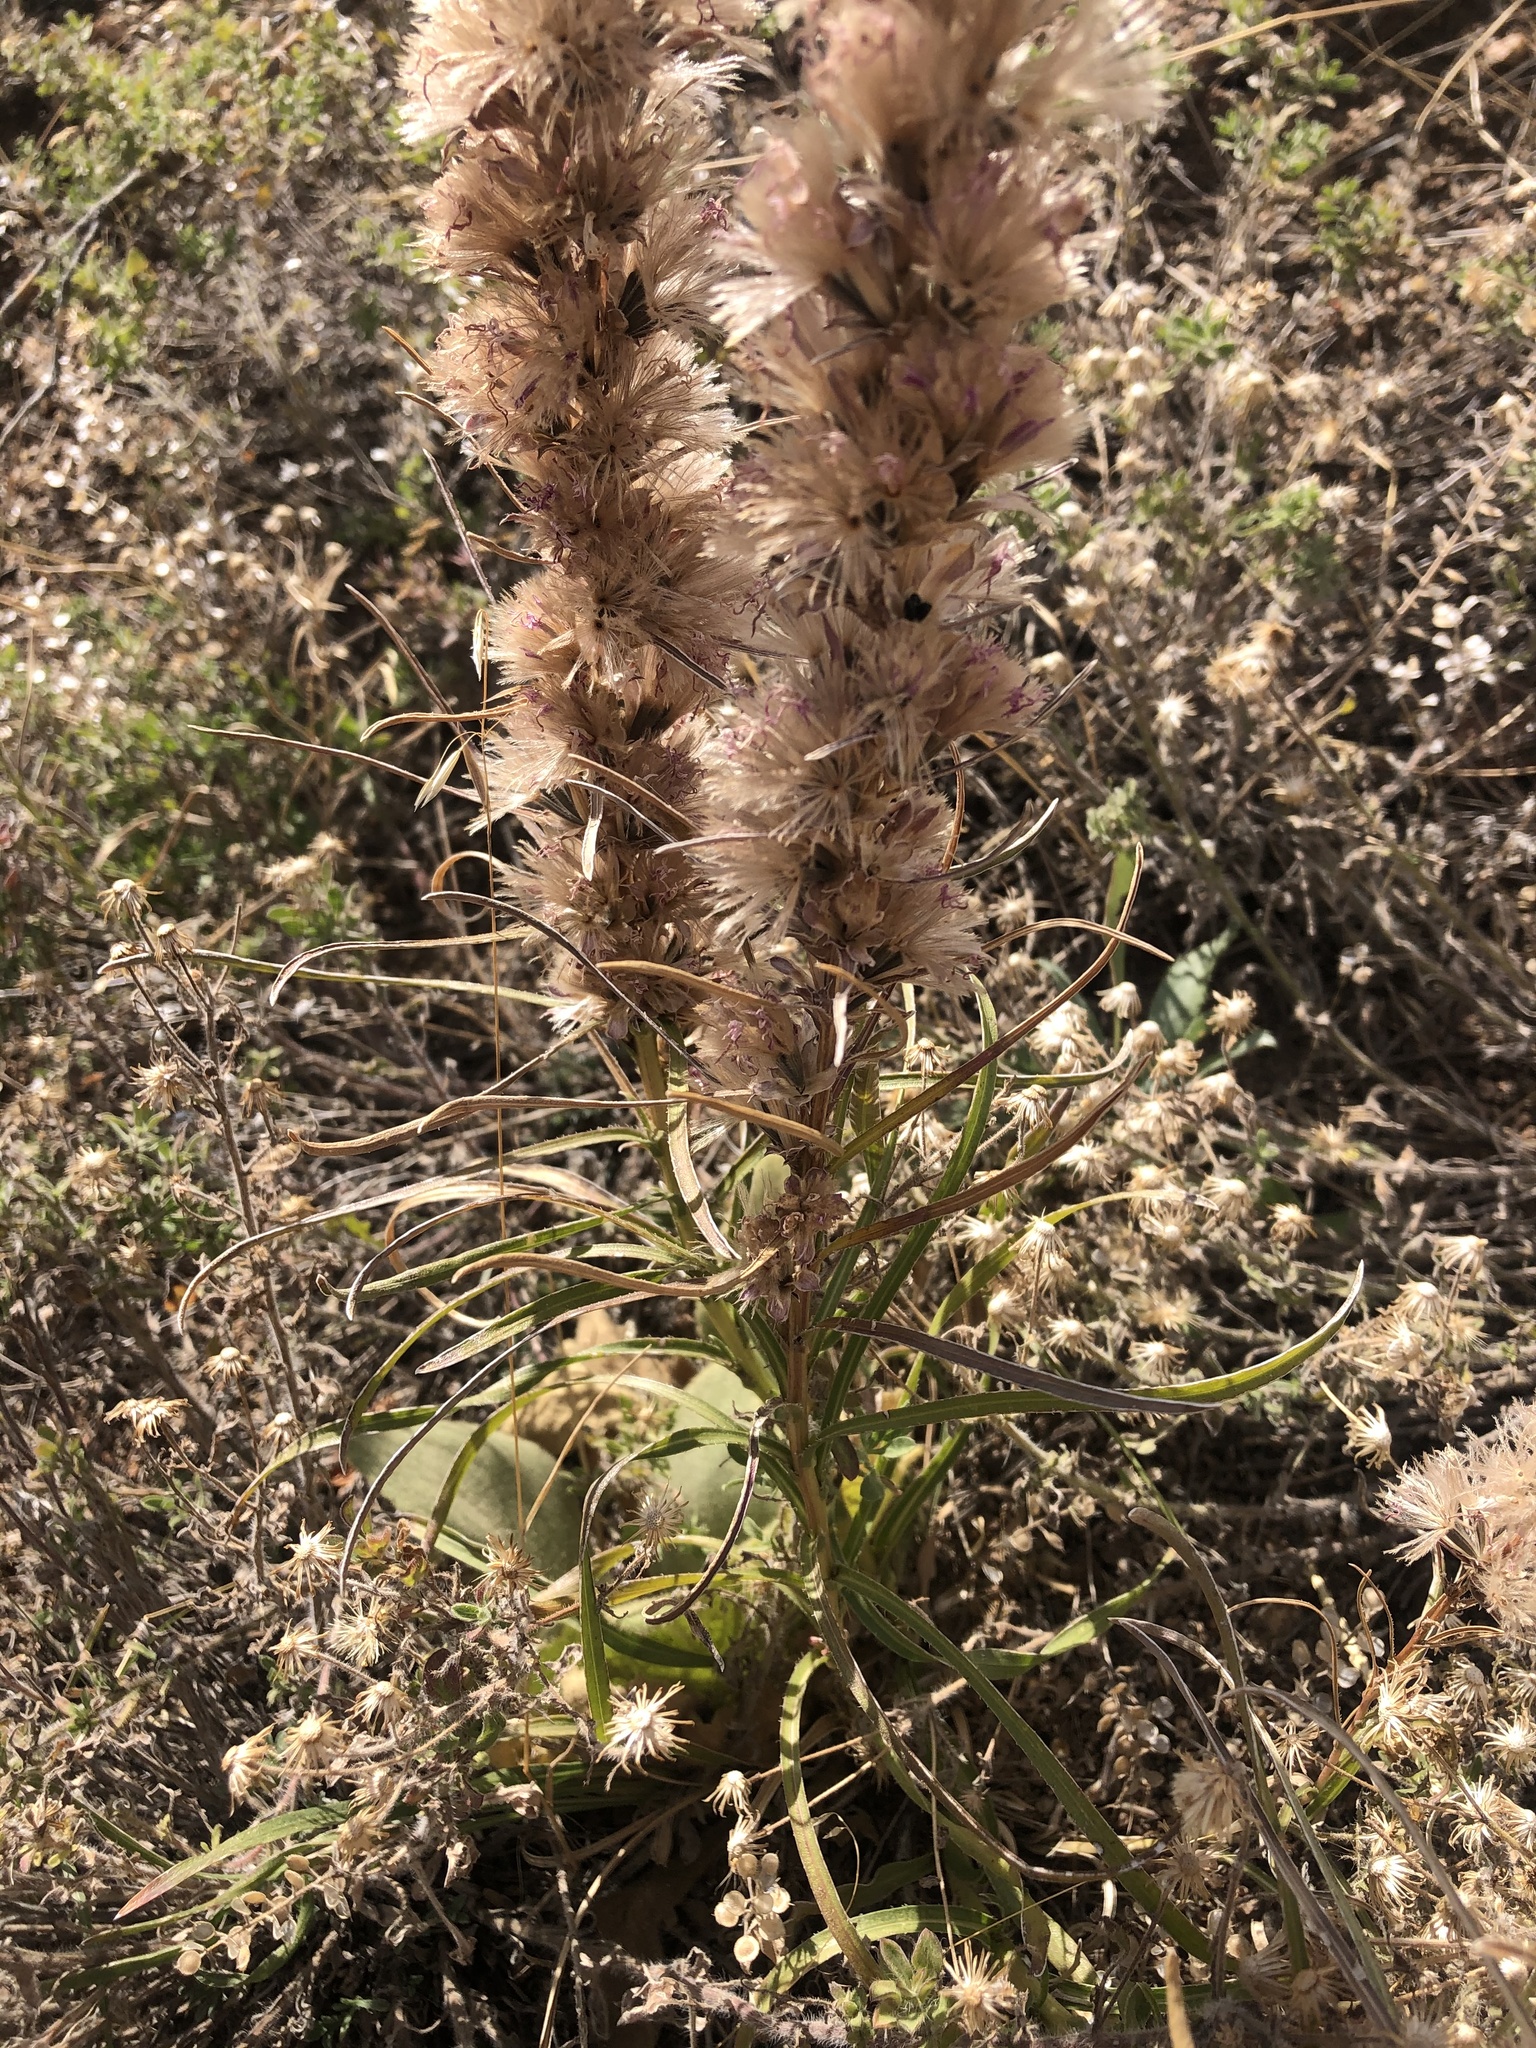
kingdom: Plantae
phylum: Tracheophyta
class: Magnoliopsida
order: Asterales
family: Asteraceae
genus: Liatris
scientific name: Liatris punctata
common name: Dotted gayfeather
